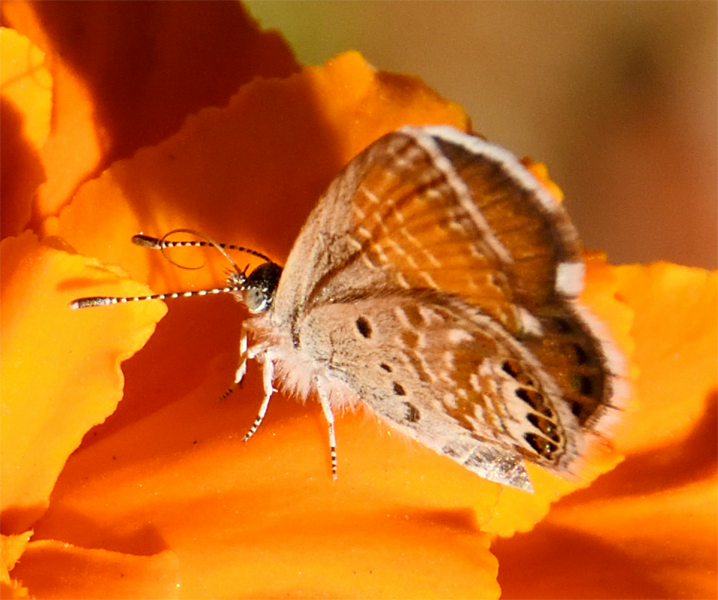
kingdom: Animalia
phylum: Arthropoda
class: Insecta
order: Lepidoptera
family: Lycaenidae
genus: Brephidium
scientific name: Brephidium exilis
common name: Pygmy blue
